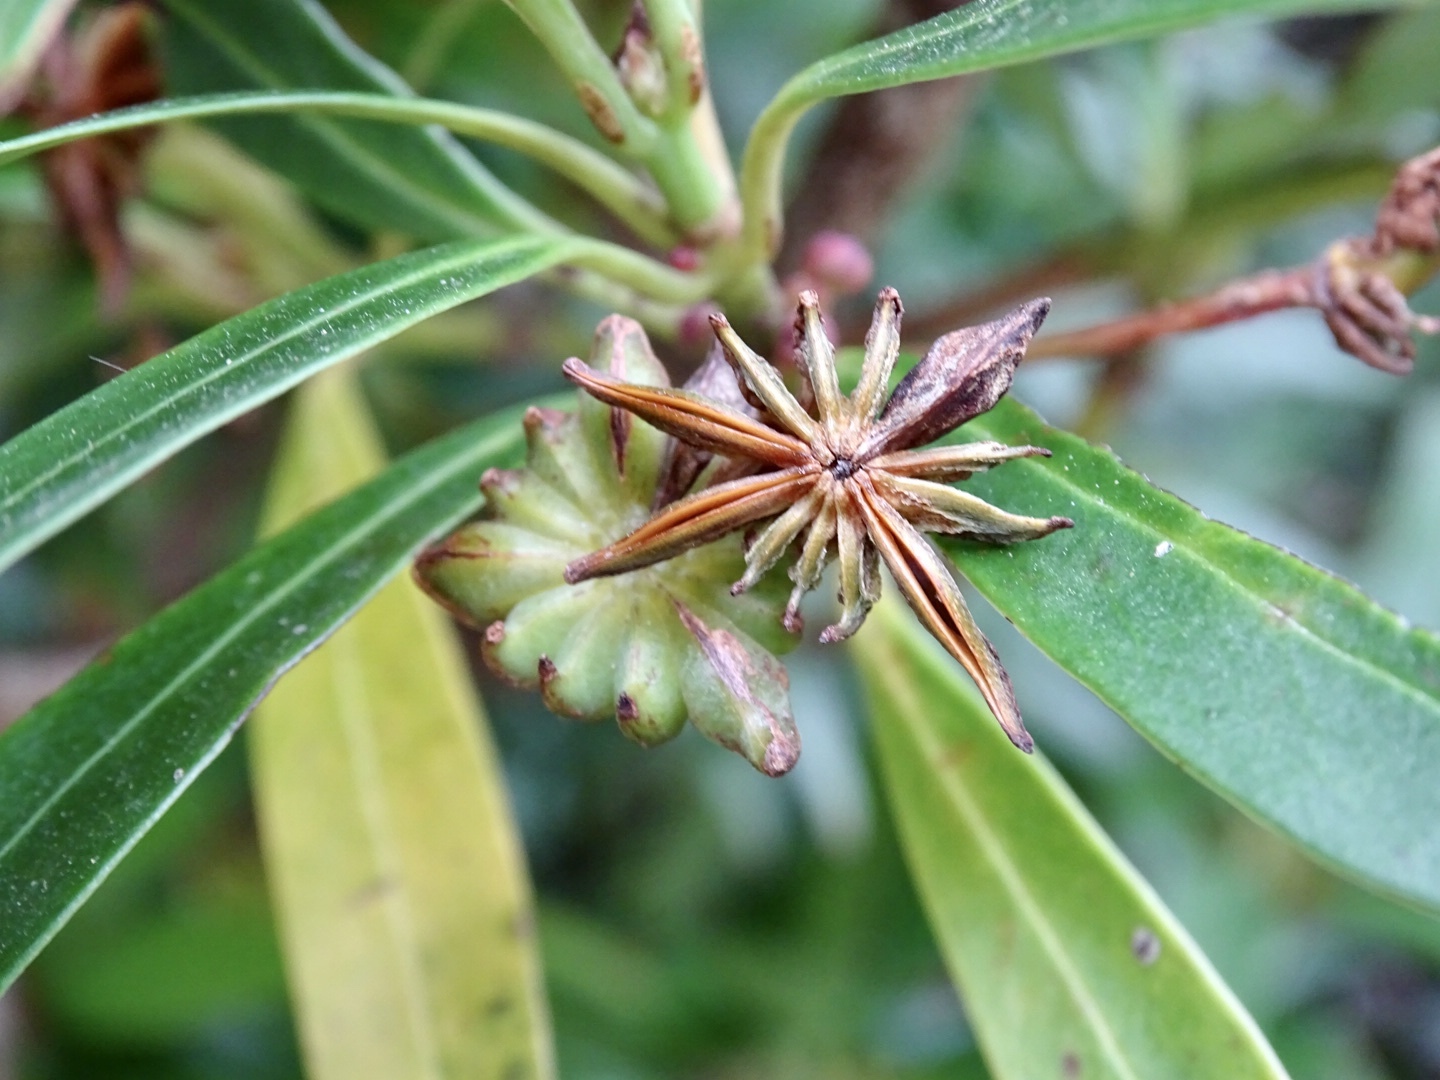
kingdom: Plantae
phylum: Tracheophyta
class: Magnoliopsida
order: Austrobaileyales
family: Schisandraceae
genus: Illicium
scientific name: Illicium dunnianum
